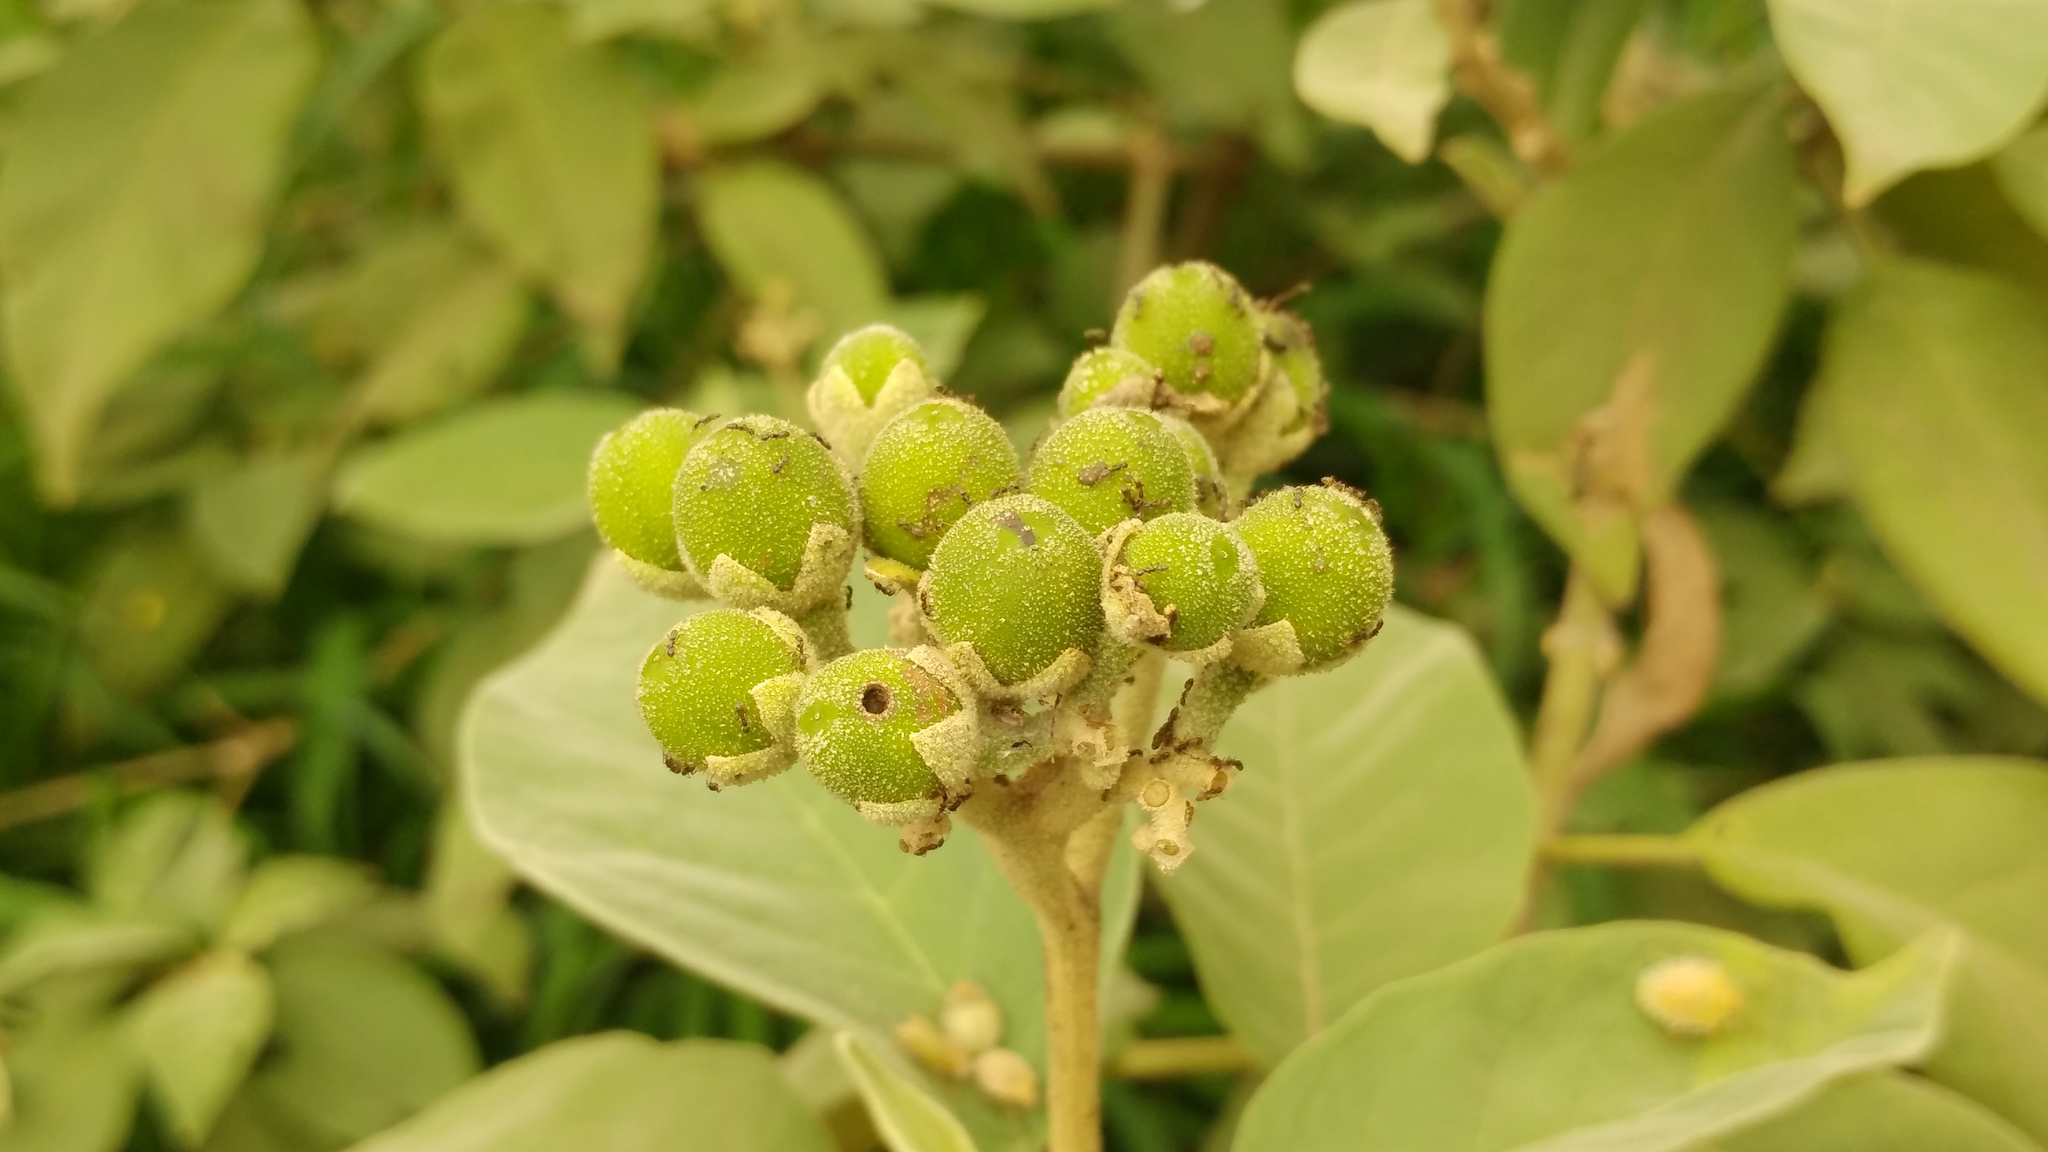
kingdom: Plantae
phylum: Tracheophyta
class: Magnoliopsida
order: Solanales
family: Solanaceae
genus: Solanum
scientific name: Solanum erianthum
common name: Tobacco-tree
